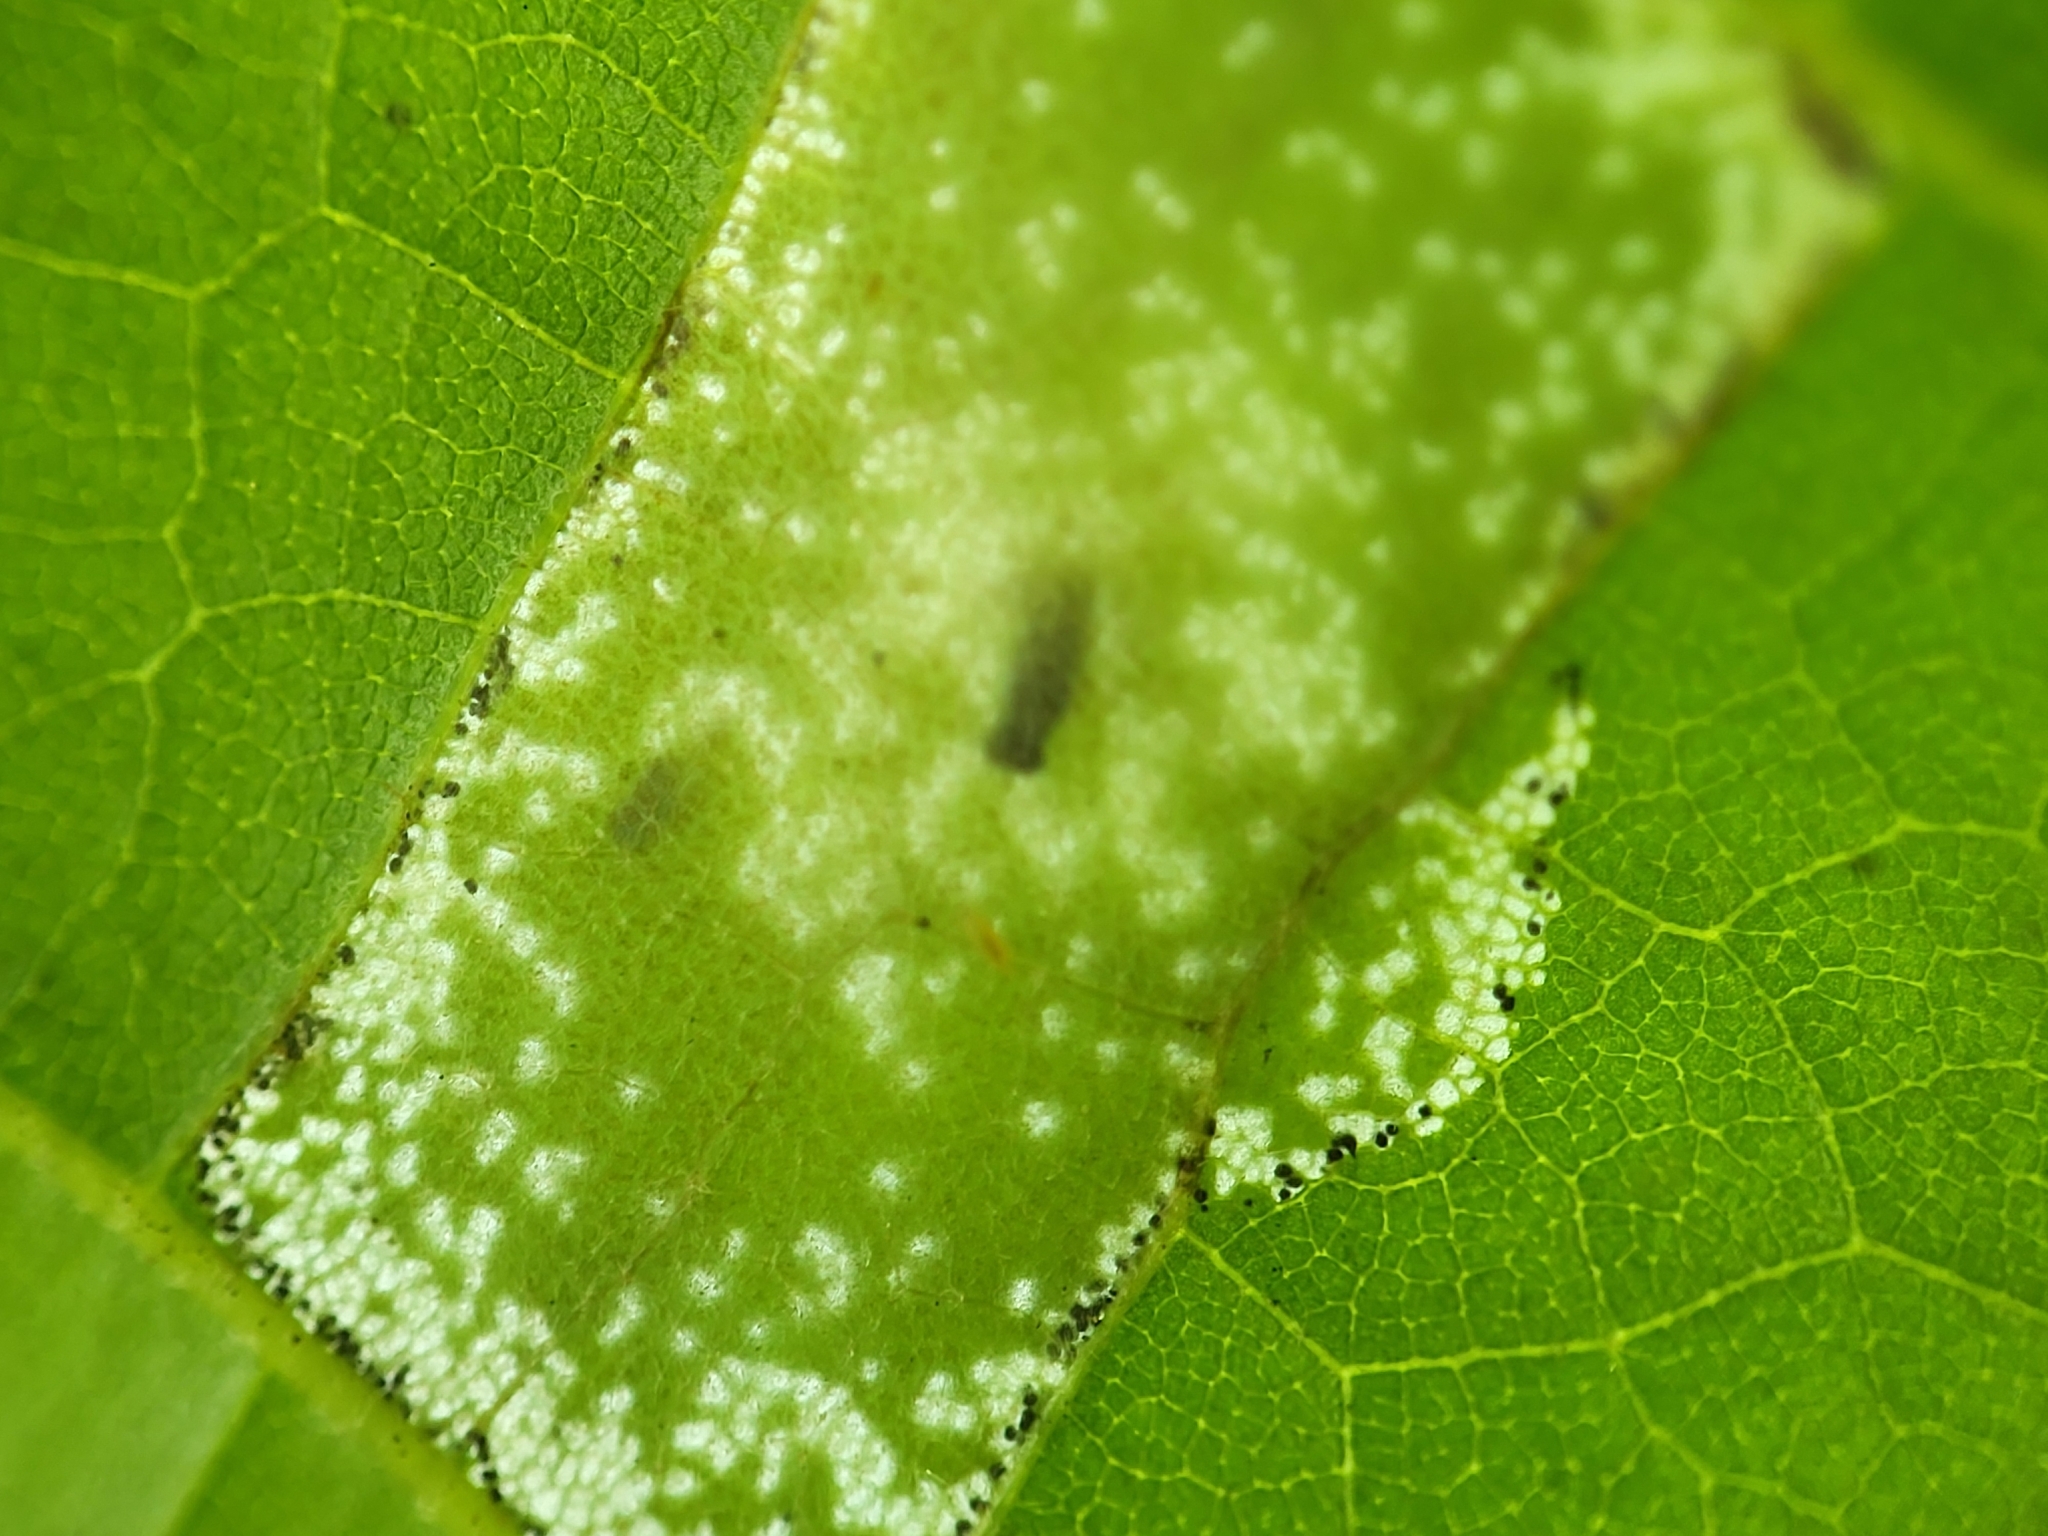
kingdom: Animalia
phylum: Arthropoda
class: Insecta
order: Lepidoptera
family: Gracillariidae
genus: Phyllonorycter
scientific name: Phyllonorycter lucetiella
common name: Basswood miner moth
